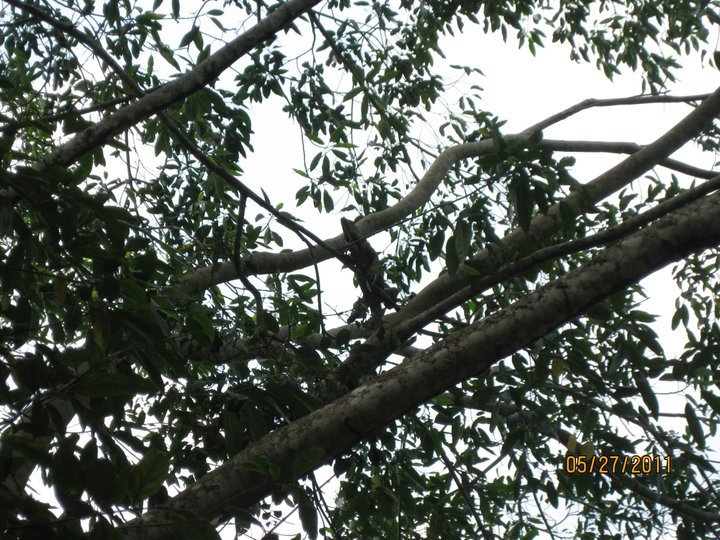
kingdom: Animalia
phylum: Chordata
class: Squamata
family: Iguanidae
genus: Iguana
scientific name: Iguana iguana
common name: Green iguana
